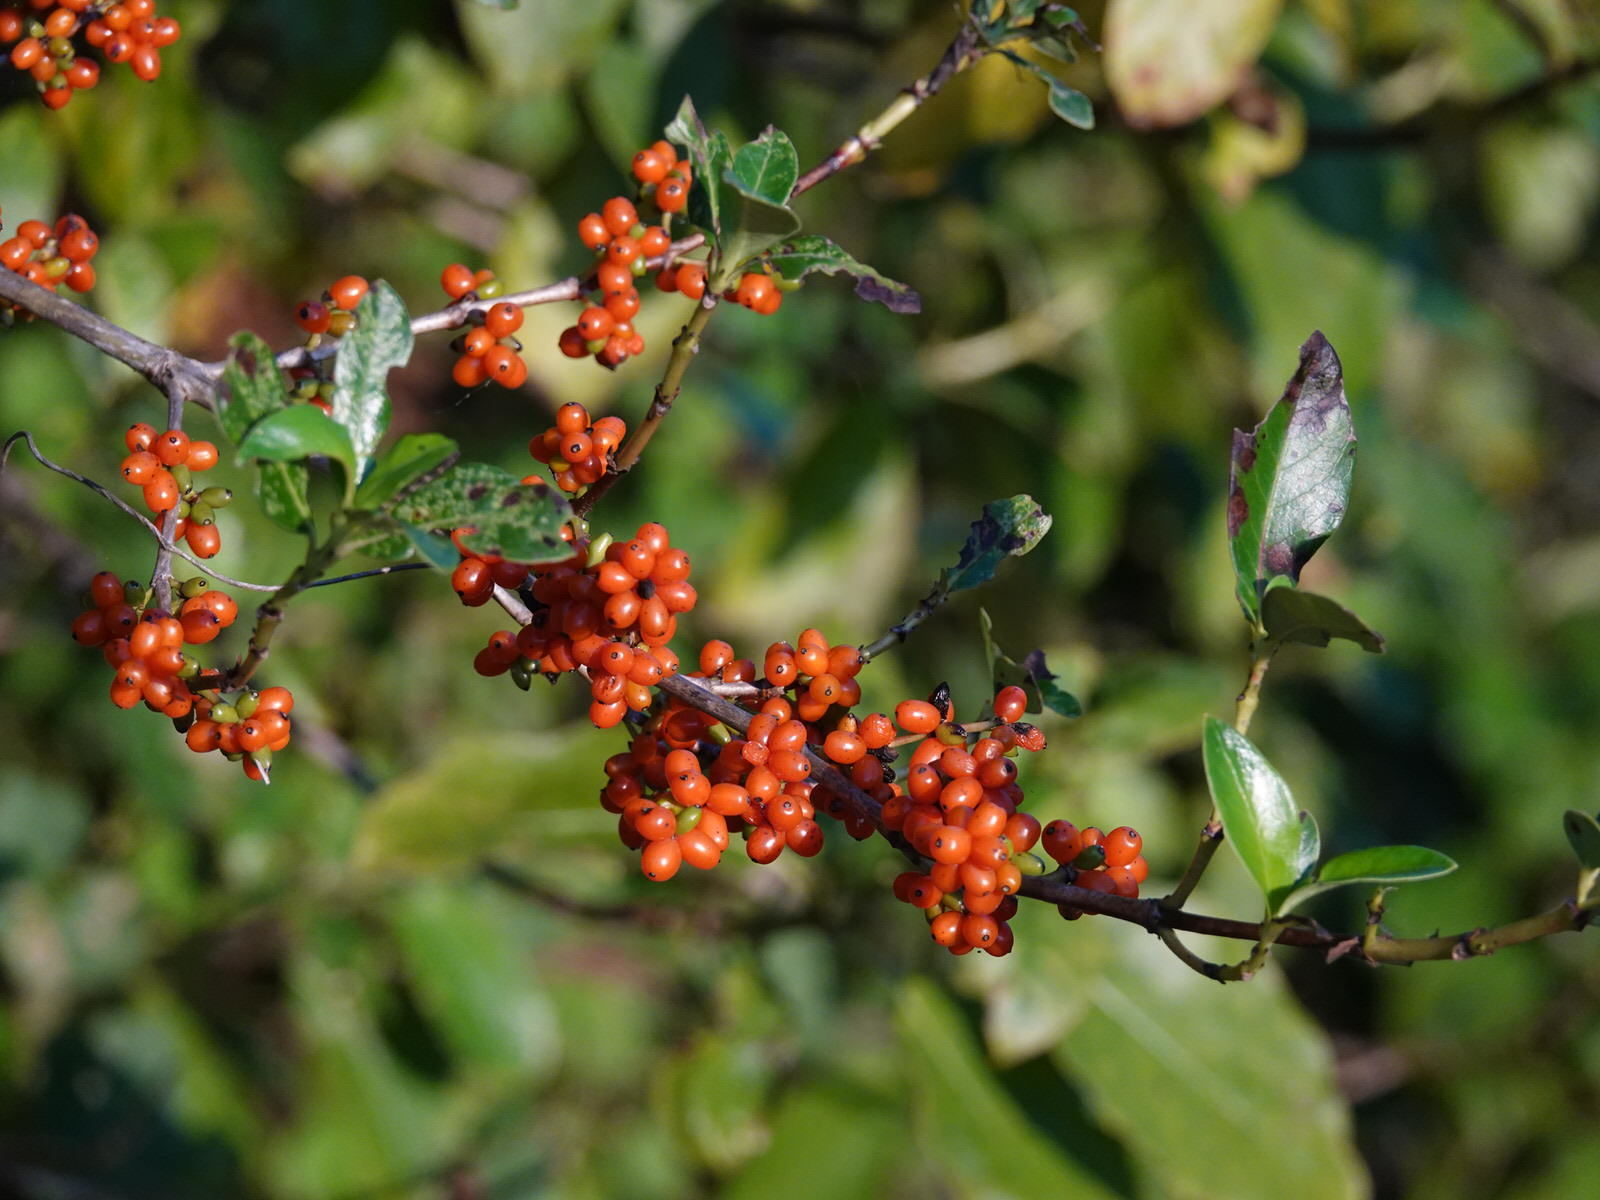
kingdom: Plantae
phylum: Tracheophyta
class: Magnoliopsida
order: Gentianales
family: Rubiaceae
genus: Coprosma
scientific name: Coprosma robusta
